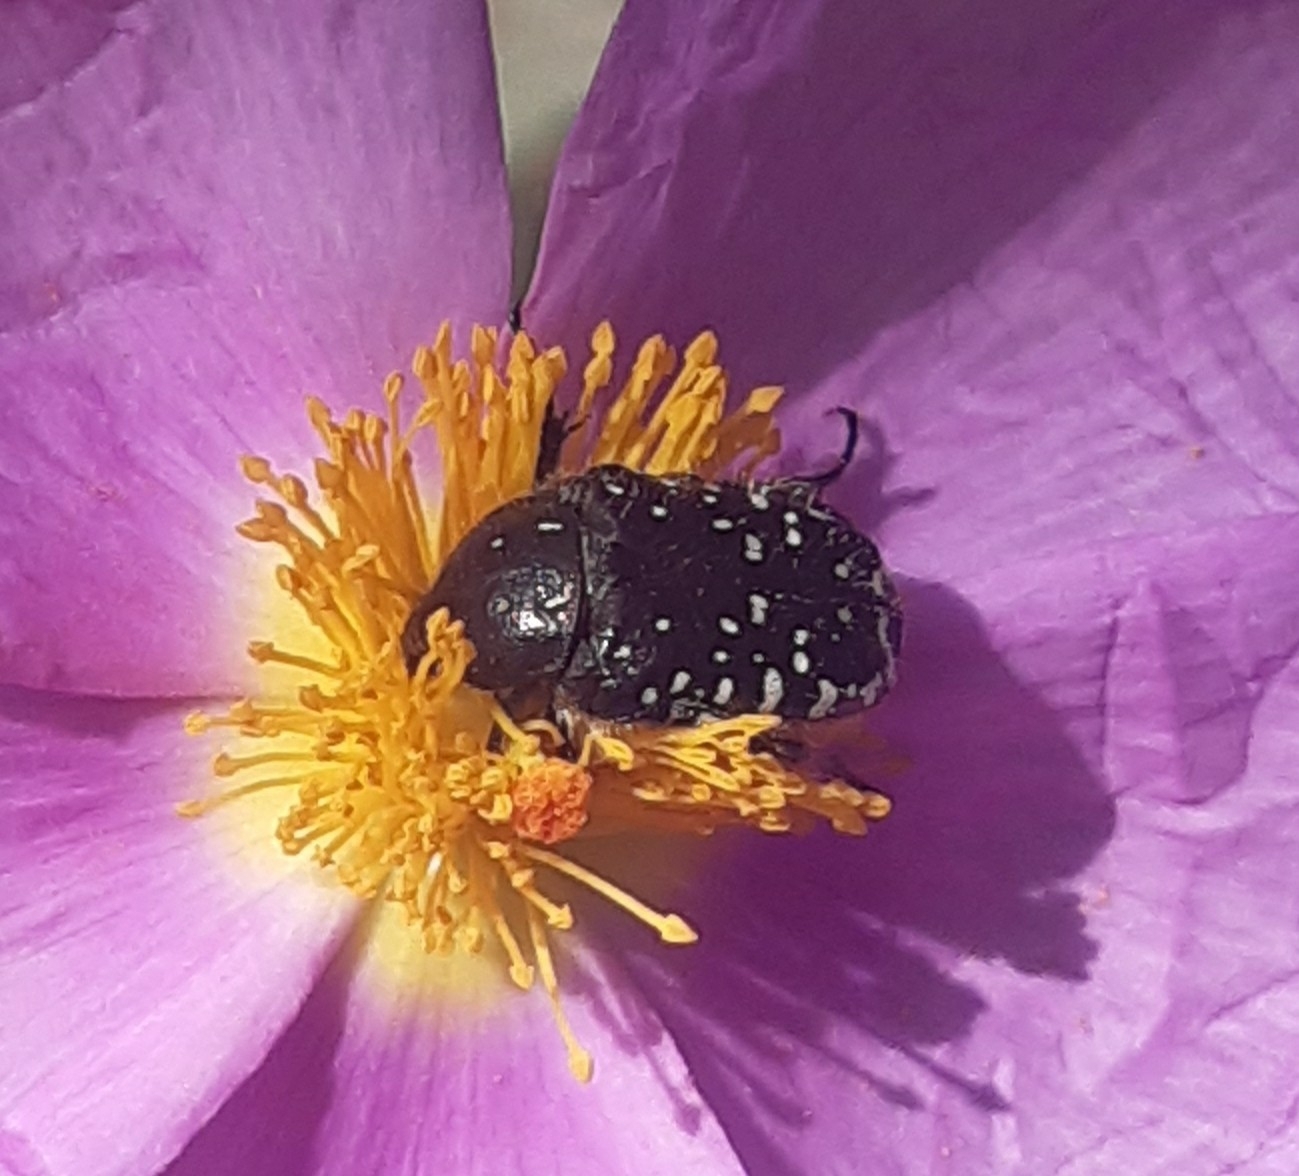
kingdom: Animalia
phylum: Arthropoda
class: Insecta
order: Coleoptera
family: Scarabaeidae
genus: Oxythyrea
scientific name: Oxythyrea funesta
